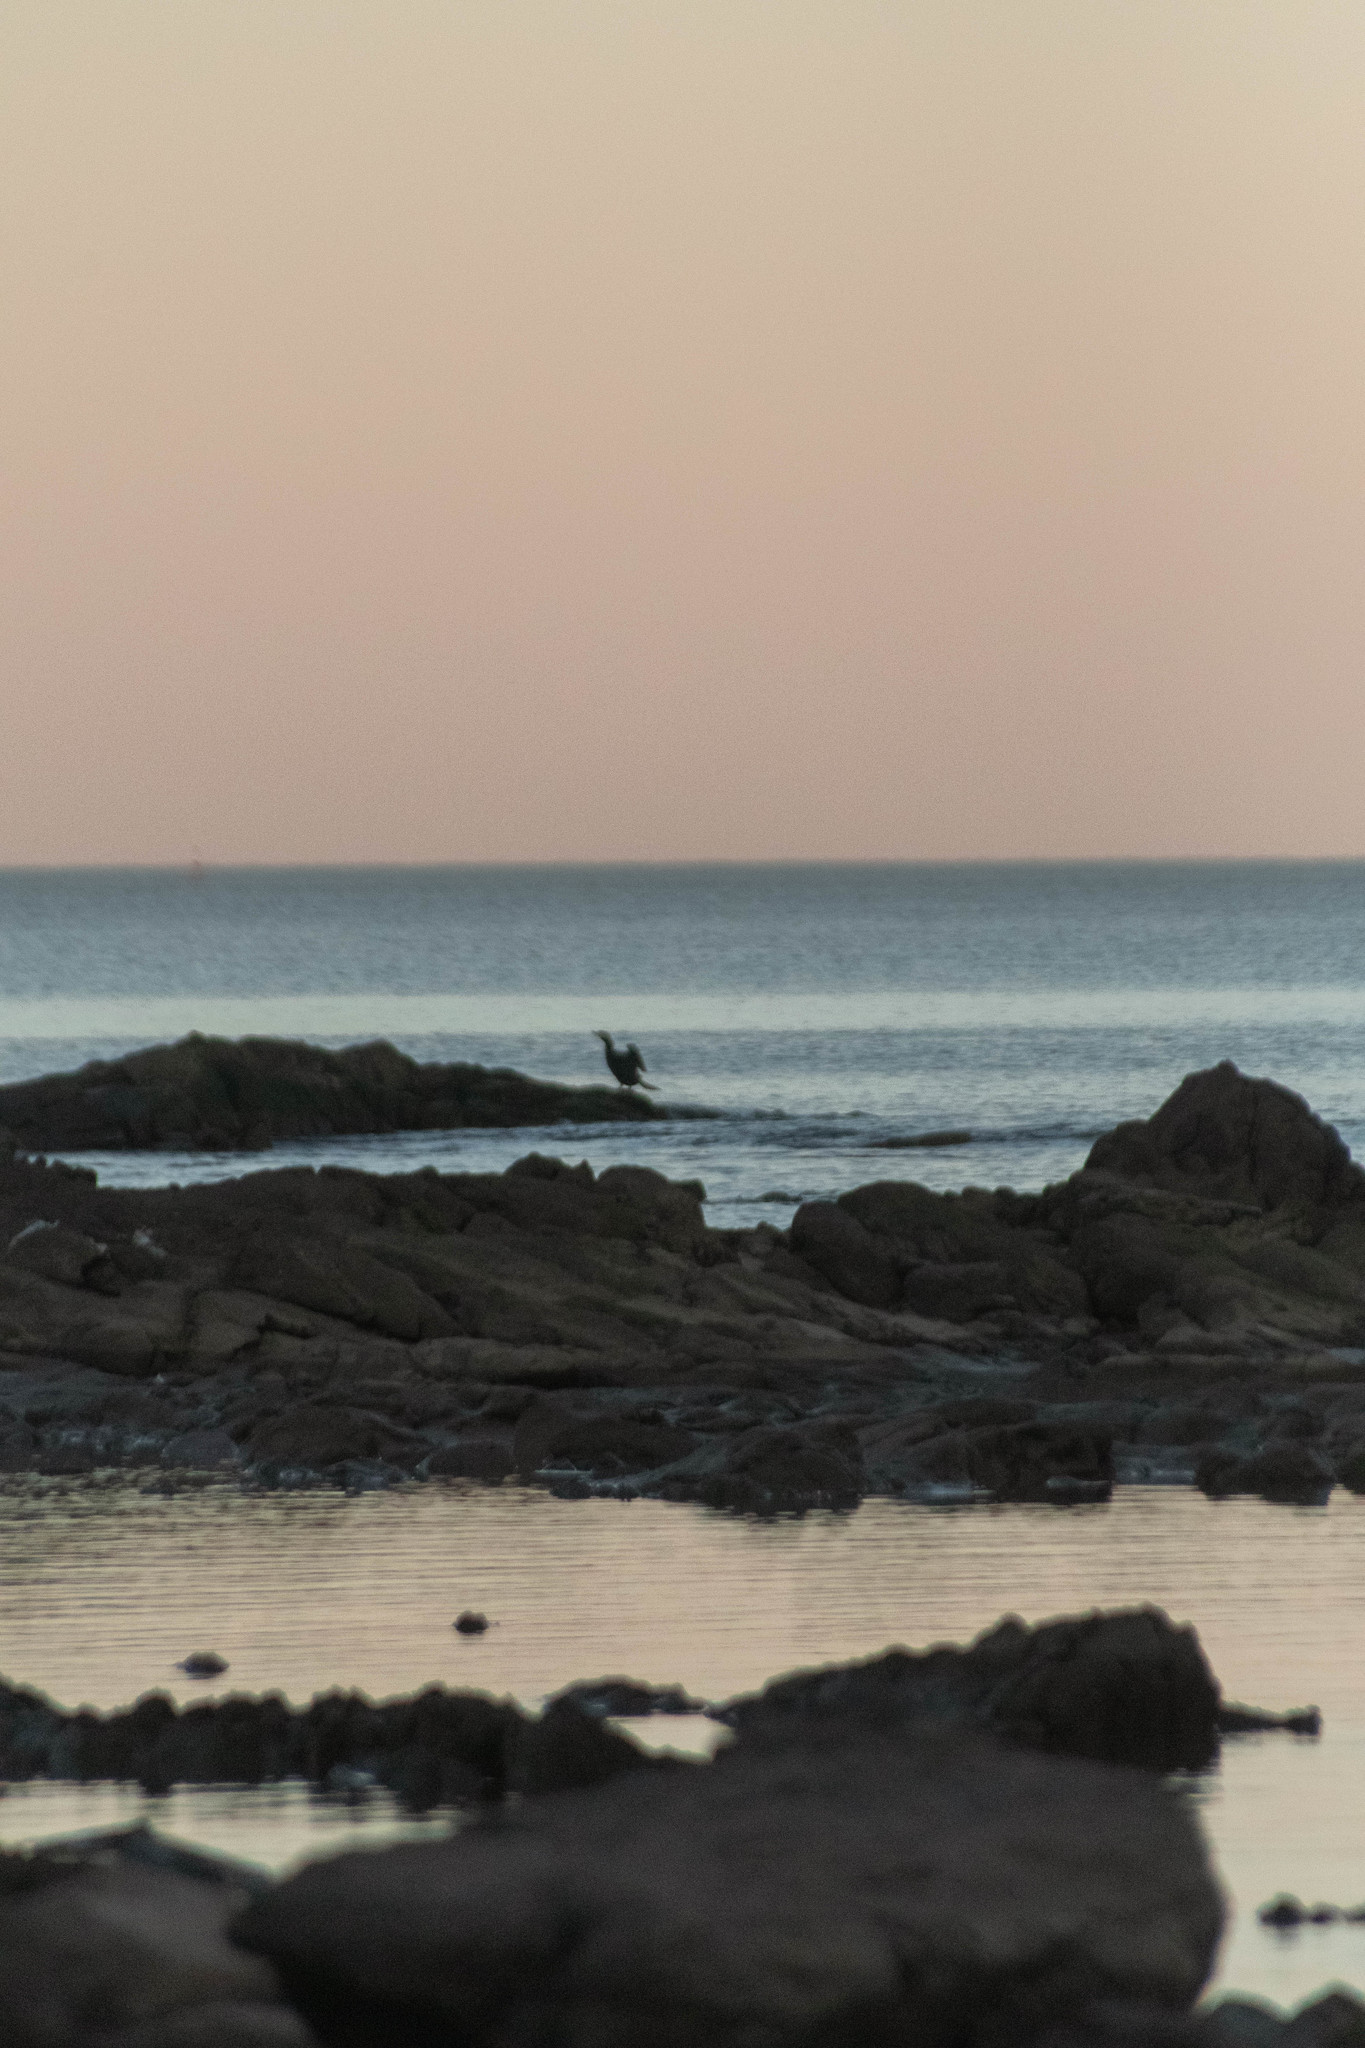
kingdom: Animalia
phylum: Chordata
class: Aves
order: Suliformes
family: Phalacrocoracidae
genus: Phalacrocorax
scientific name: Phalacrocorax brasilianus
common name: Neotropic cormorant
